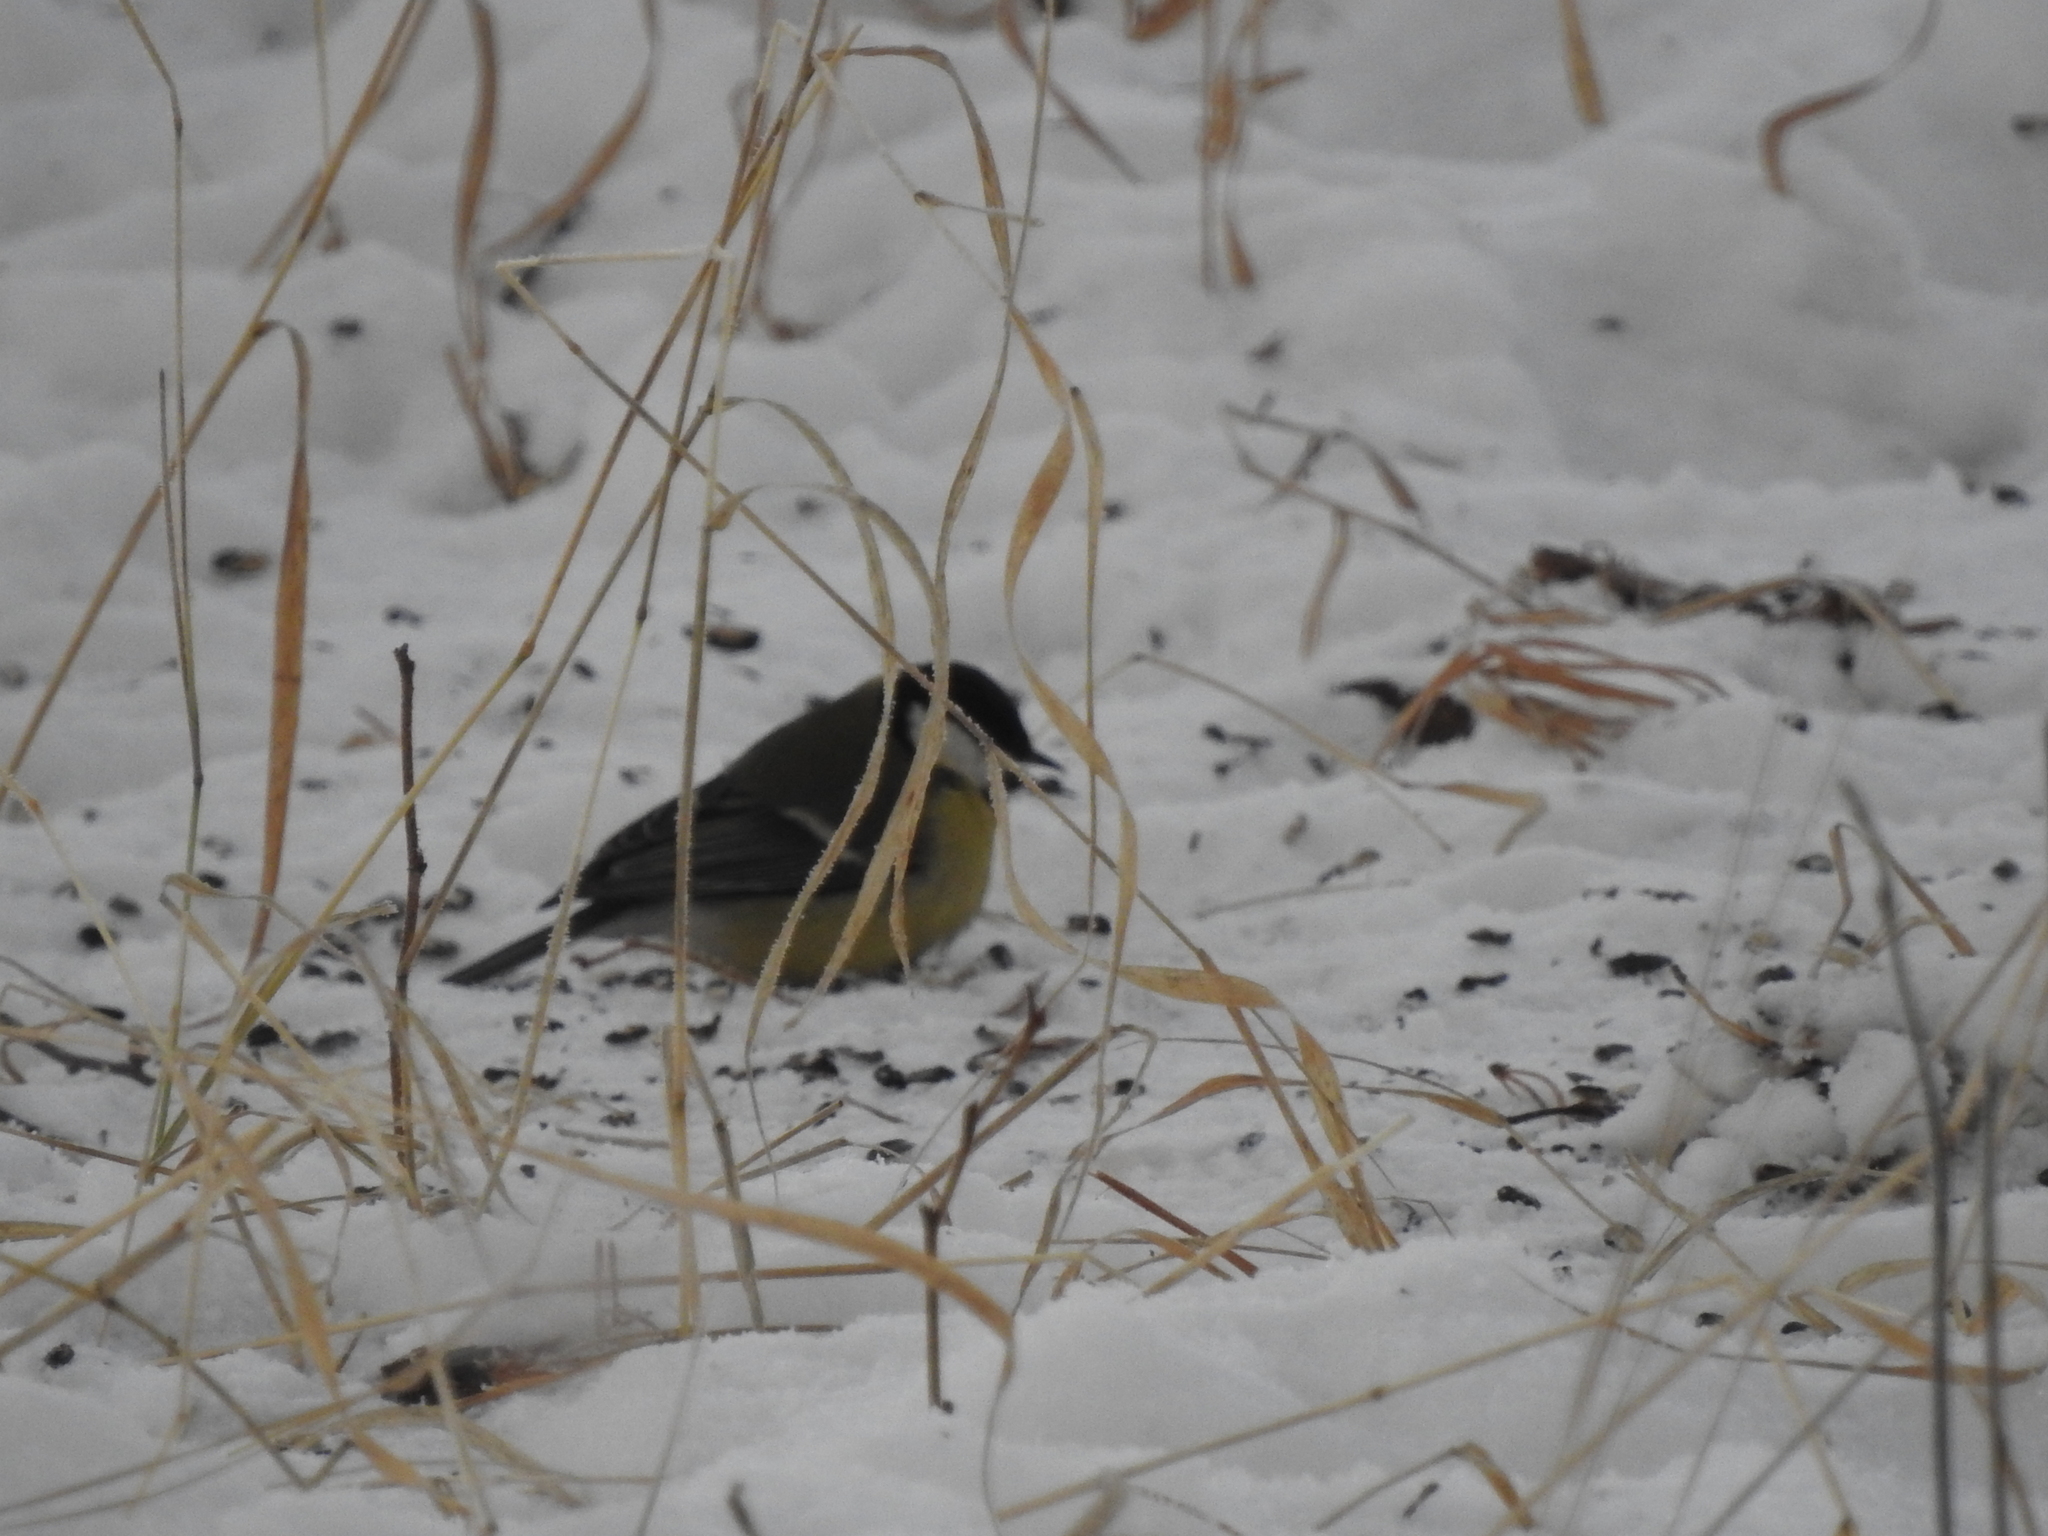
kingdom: Animalia
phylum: Chordata
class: Aves
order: Passeriformes
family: Paridae
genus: Parus
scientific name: Parus major
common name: Great tit
